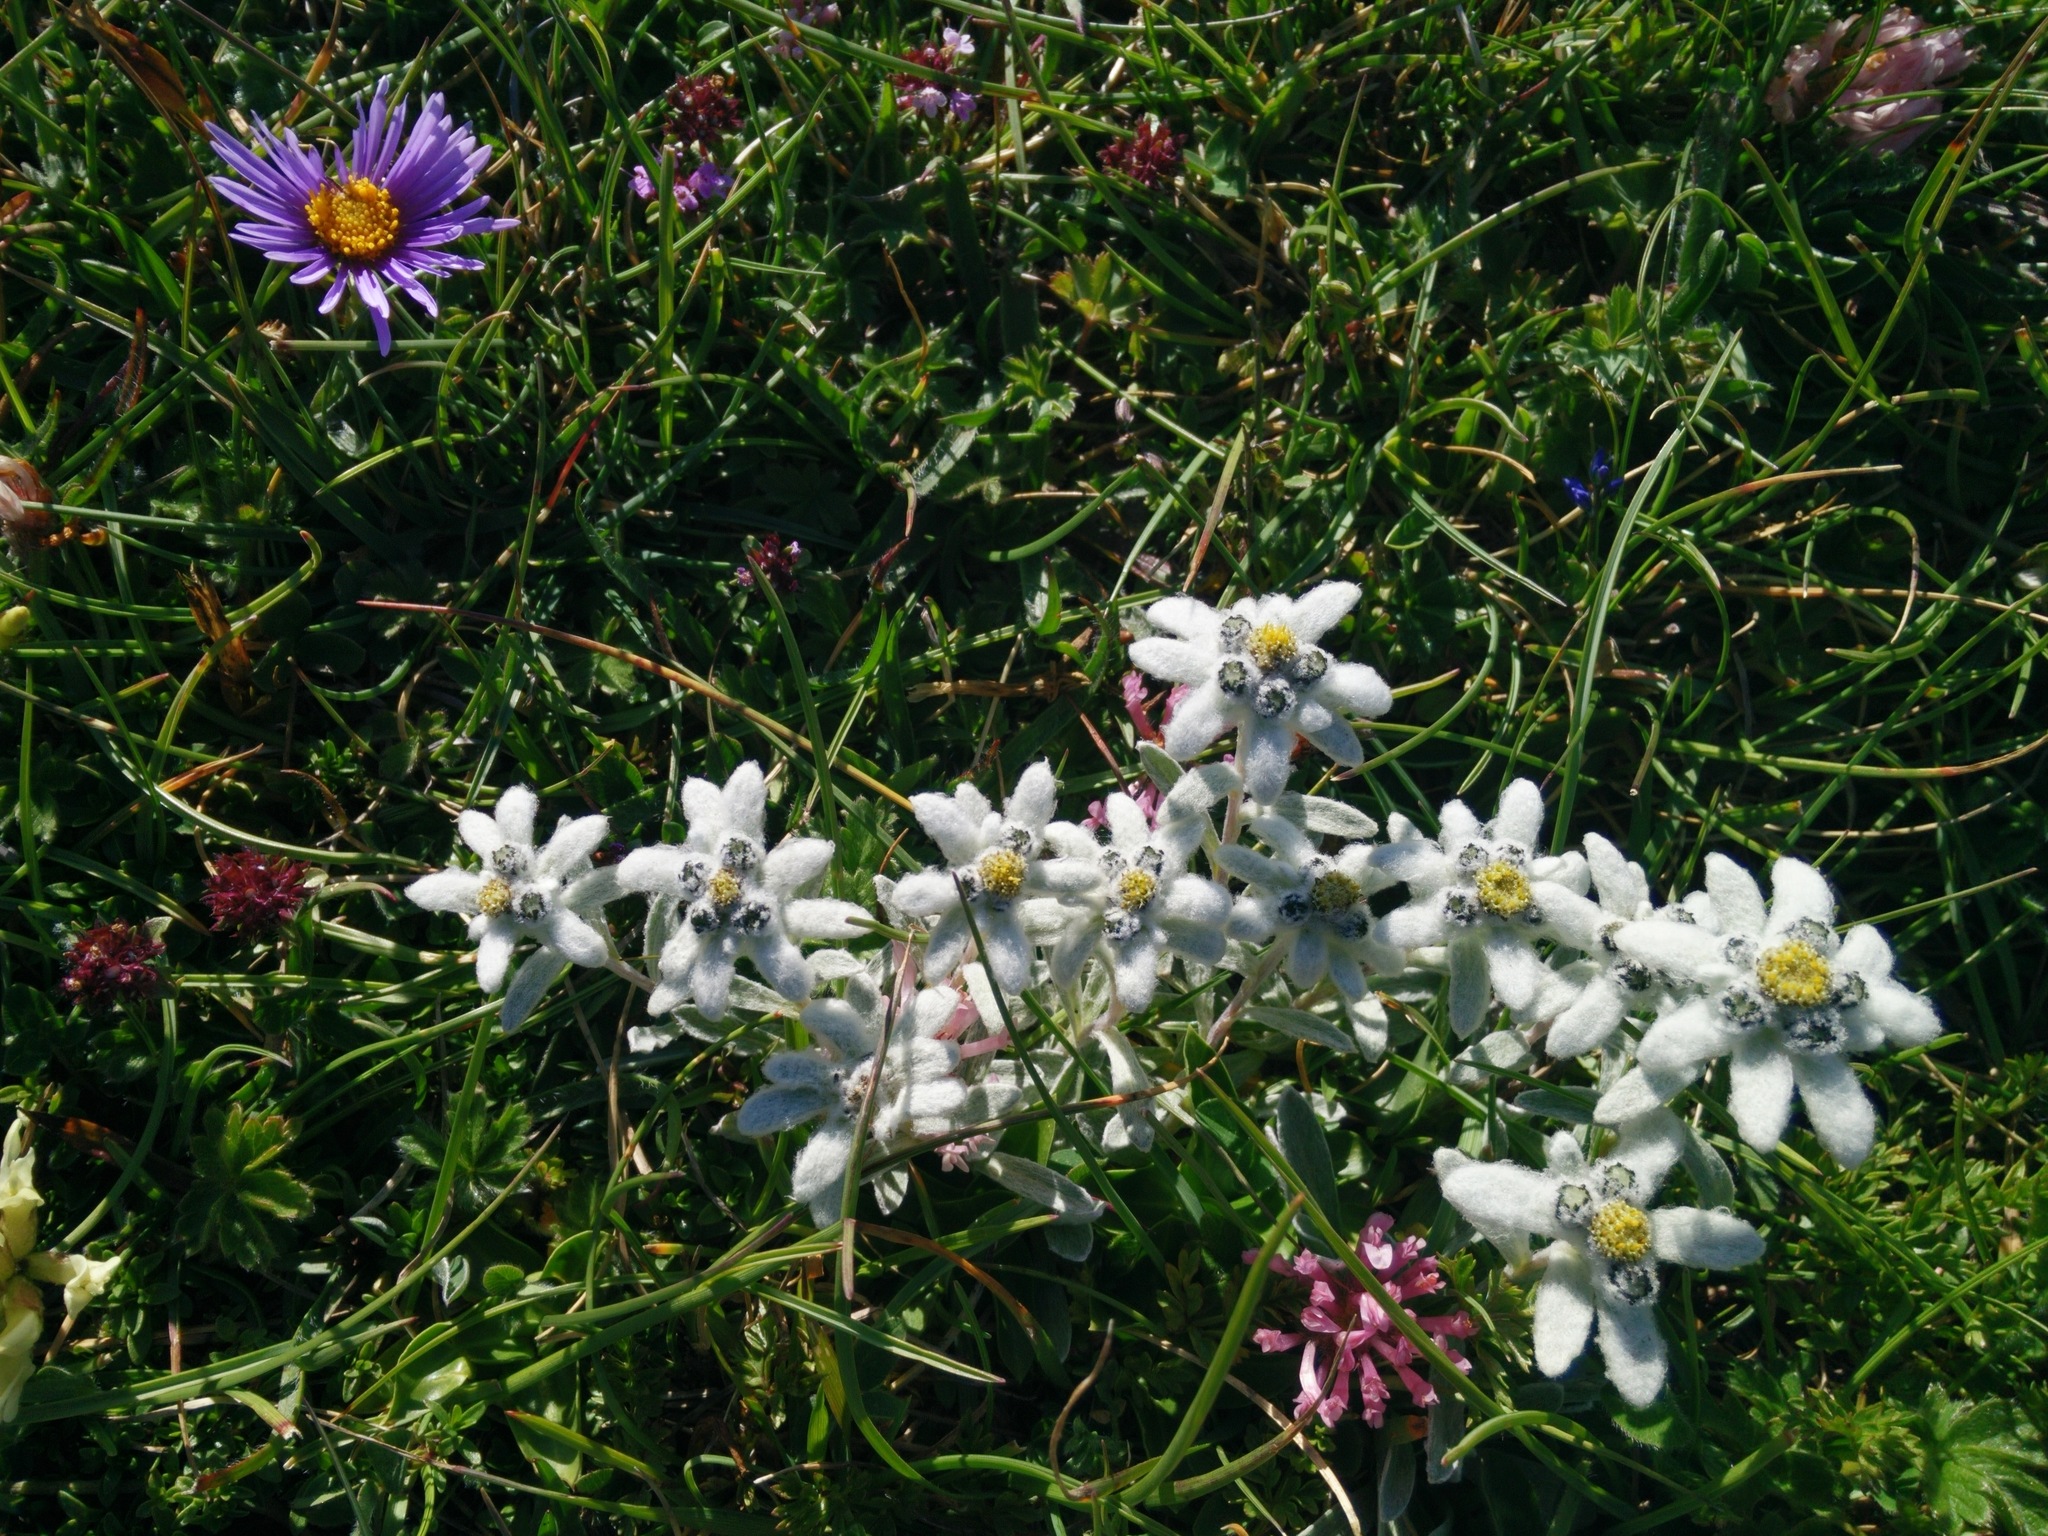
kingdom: Plantae
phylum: Tracheophyta
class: Magnoliopsida
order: Asterales
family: Asteraceae
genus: Leontopodium
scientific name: Leontopodium nivale
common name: Edelweiss
